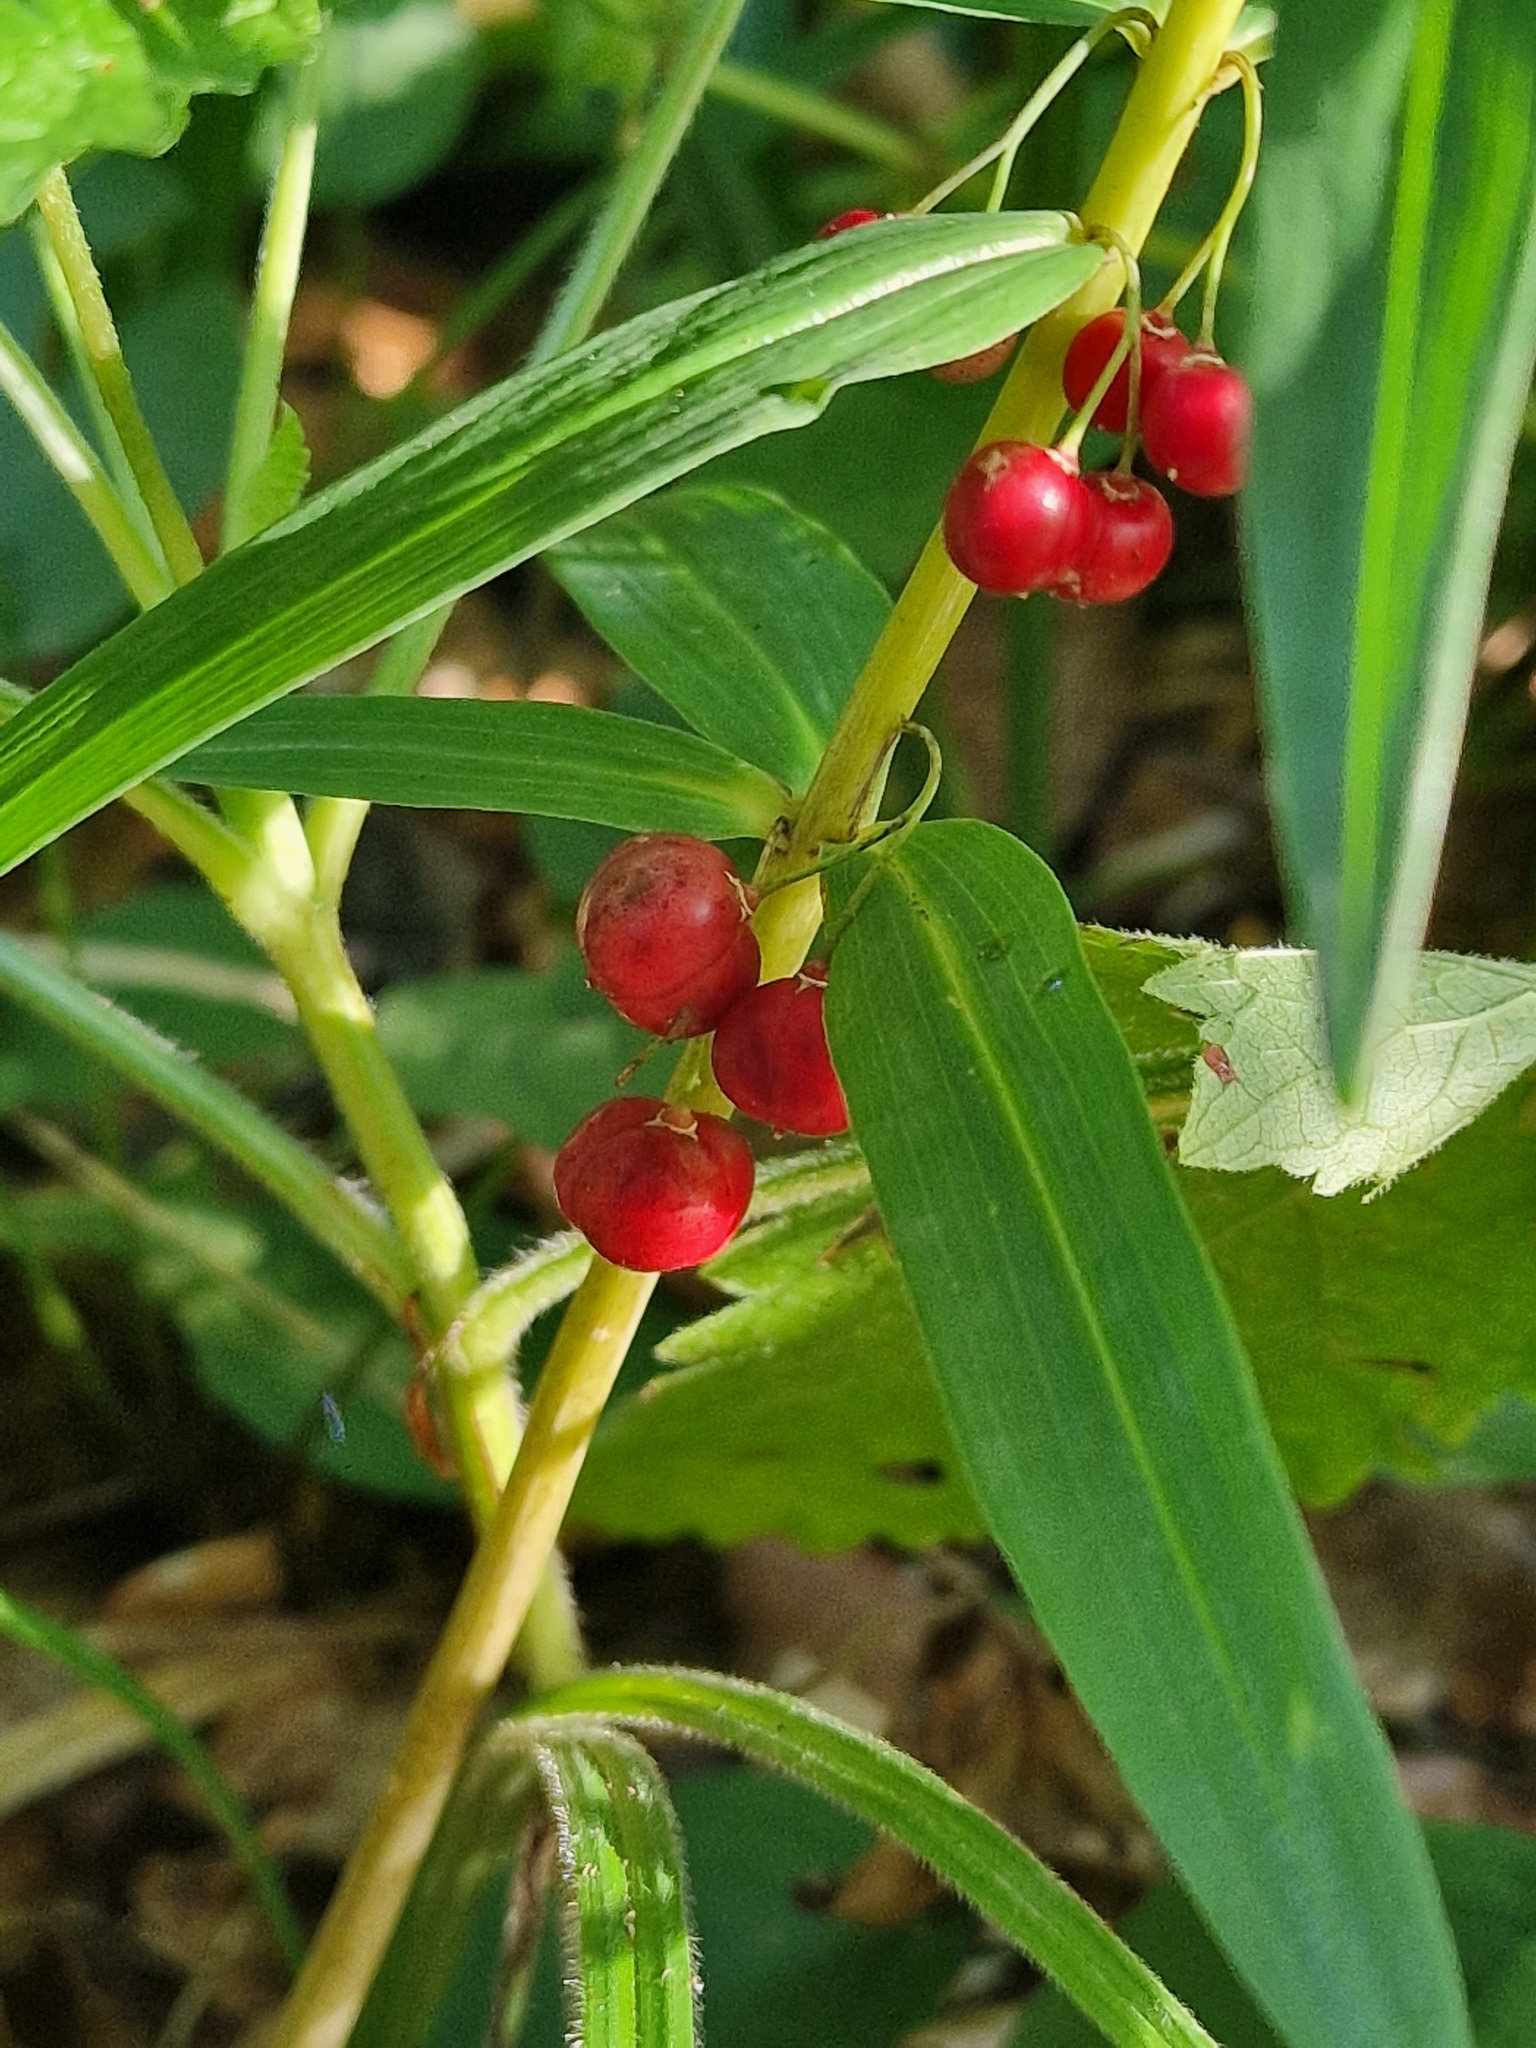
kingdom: Plantae
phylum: Tracheophyta
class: Liliopsida
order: Asparagales
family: Asparagaceae
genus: Polygonatum
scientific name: Polygonatum verticillatum
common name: Whorled solomon's-seal
